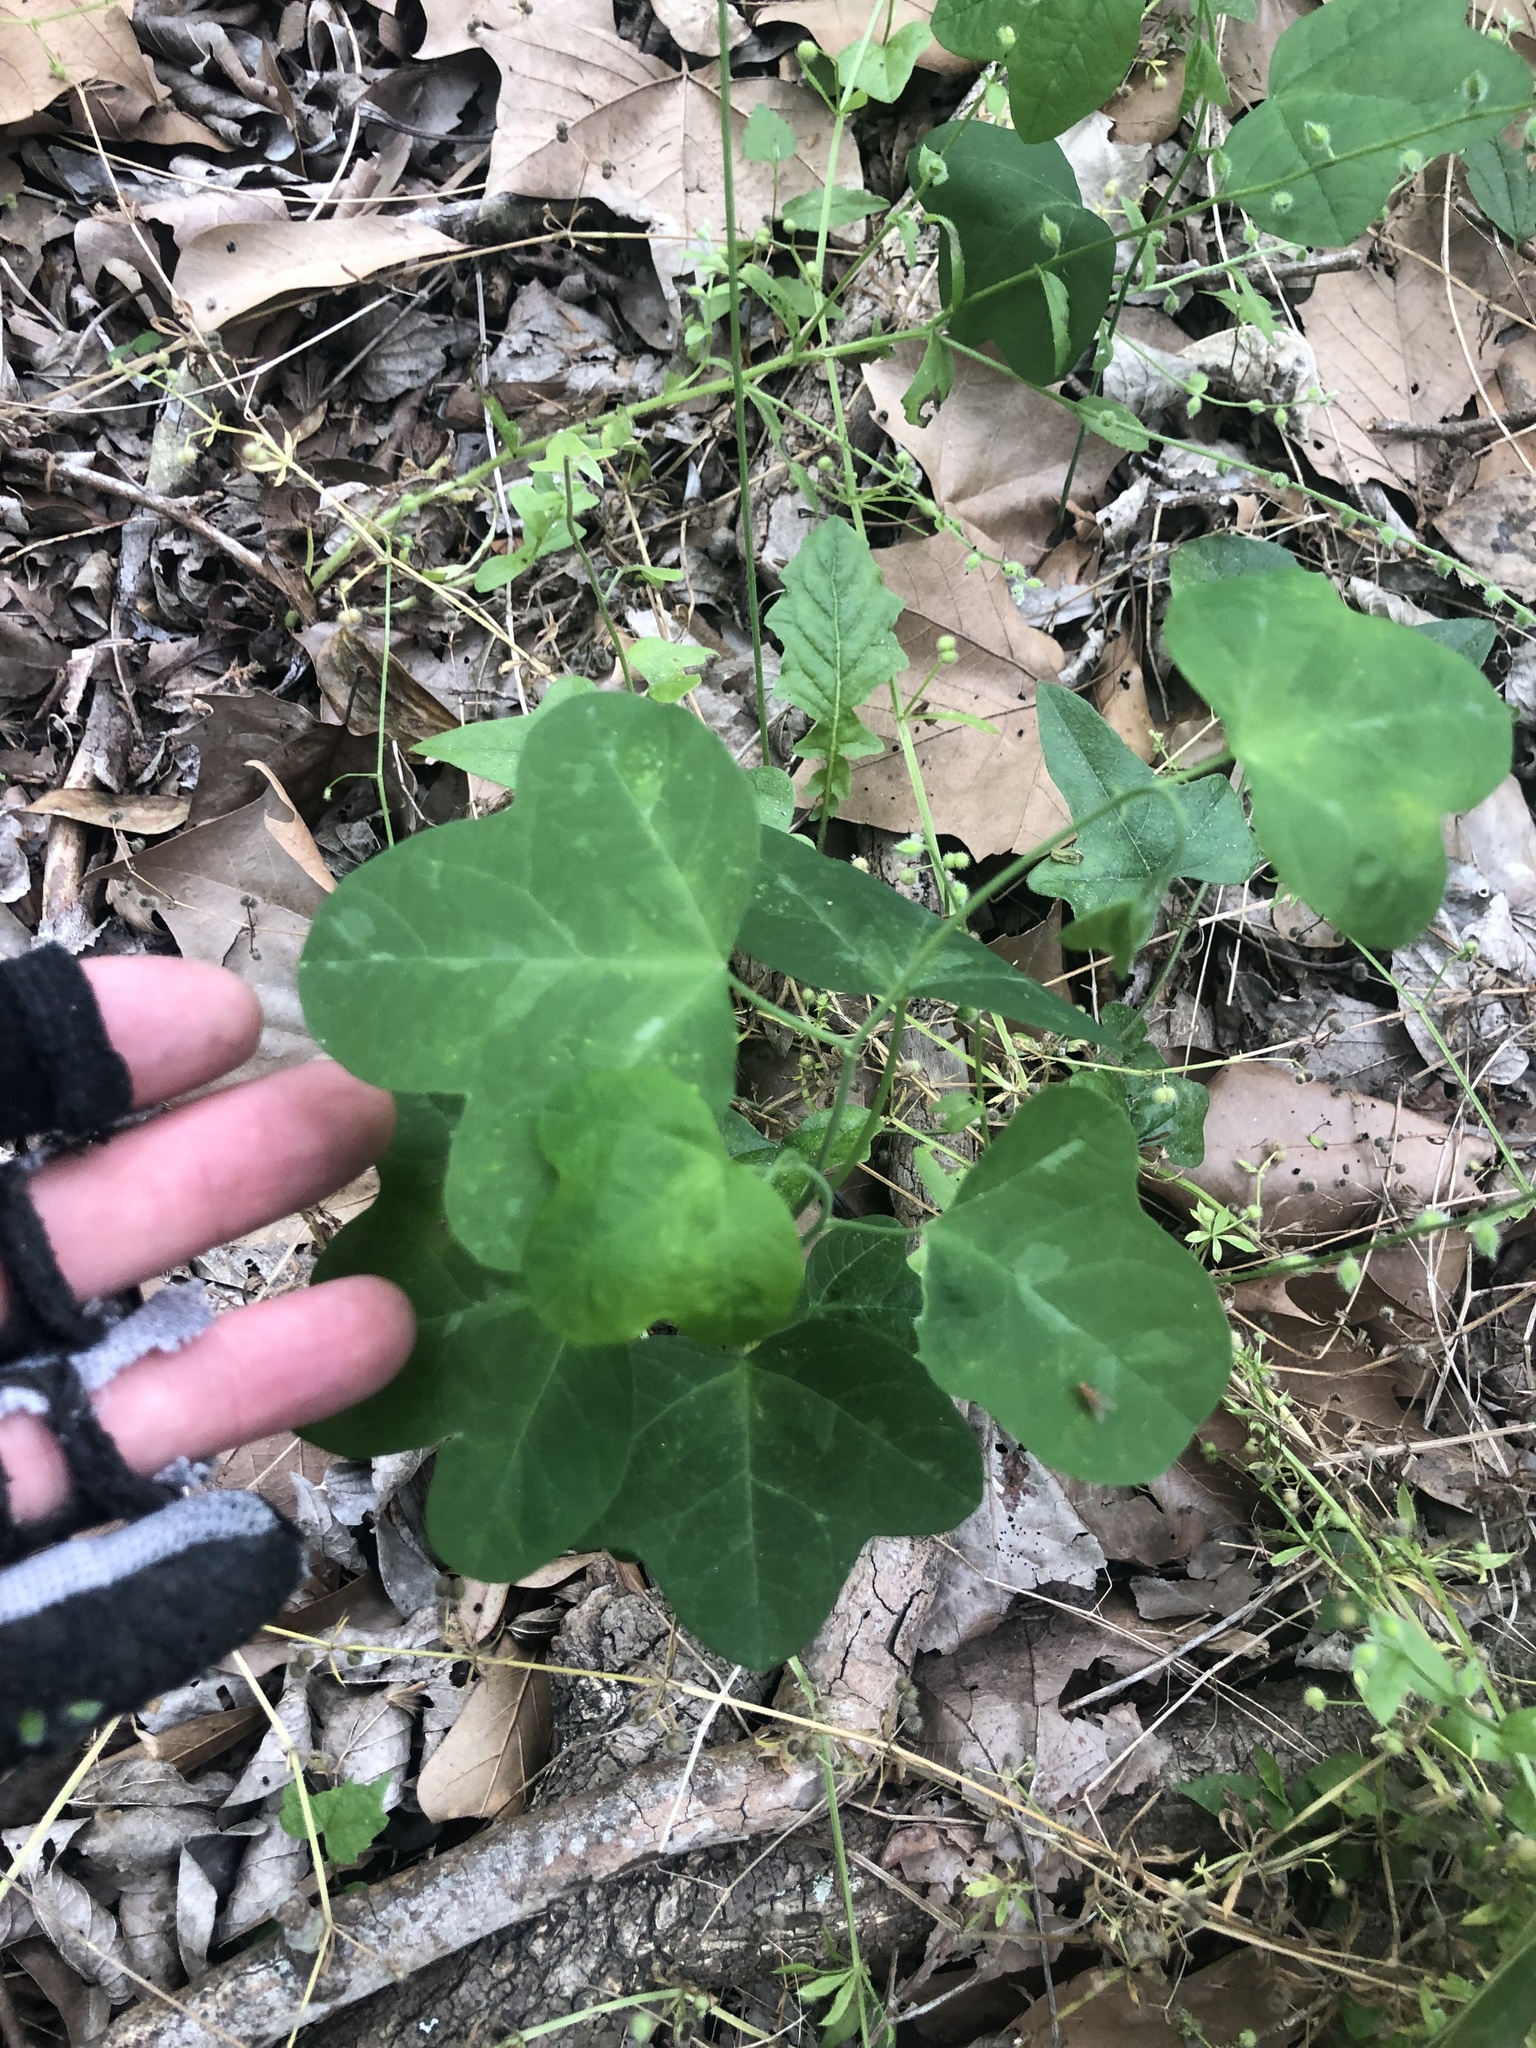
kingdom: Plantae
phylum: Tracheophyta
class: Magnoliopsida
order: Malpighiales
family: Passifloraceae
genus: Passiflora
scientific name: Passiflora lutea
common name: Yellow passionflower
